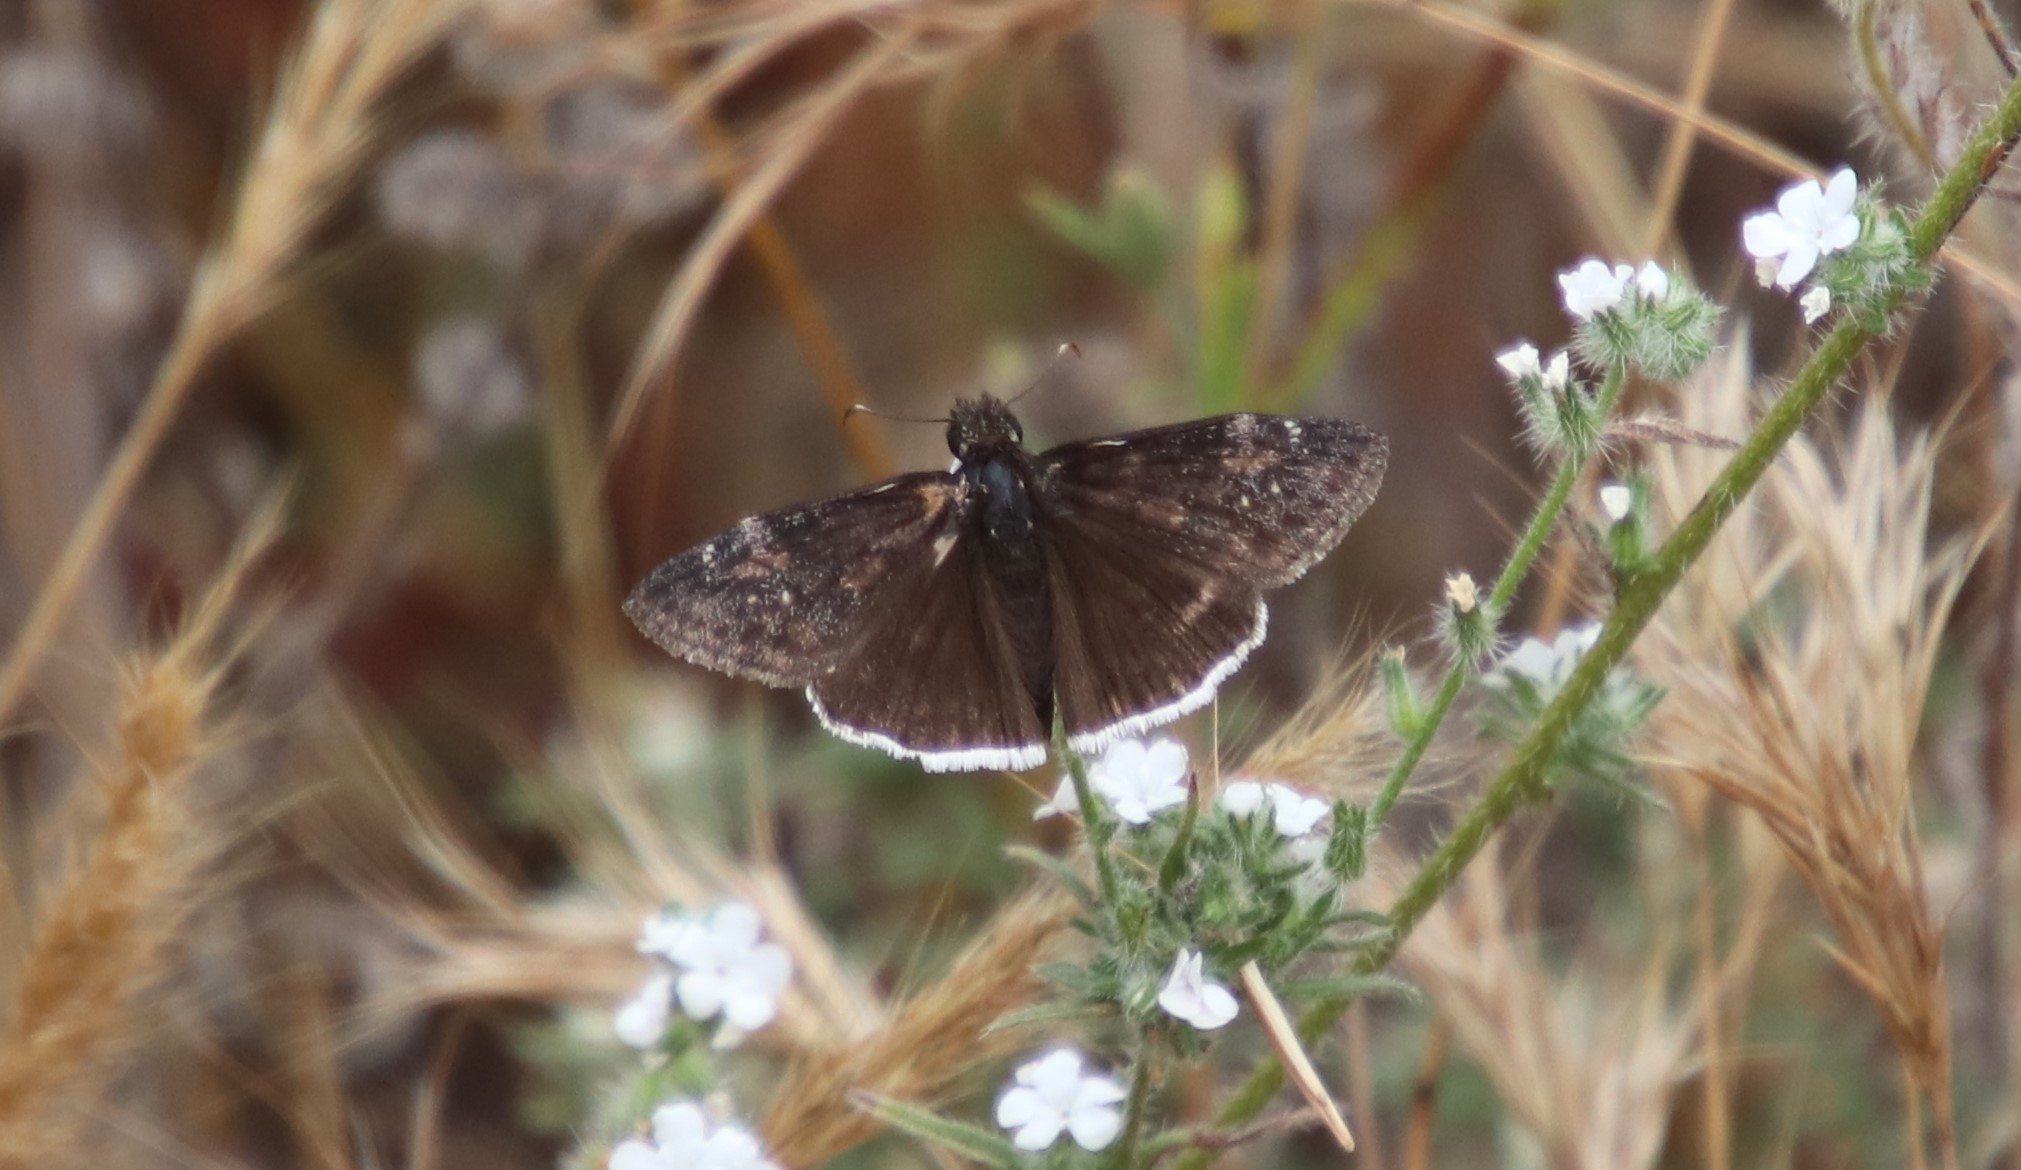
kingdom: Animalia
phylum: Arthropoda
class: Insecta
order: Lepidoptera
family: Hesperiidae
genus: Erynnis
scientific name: Erynnis funeralis
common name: Funereal duskywing
